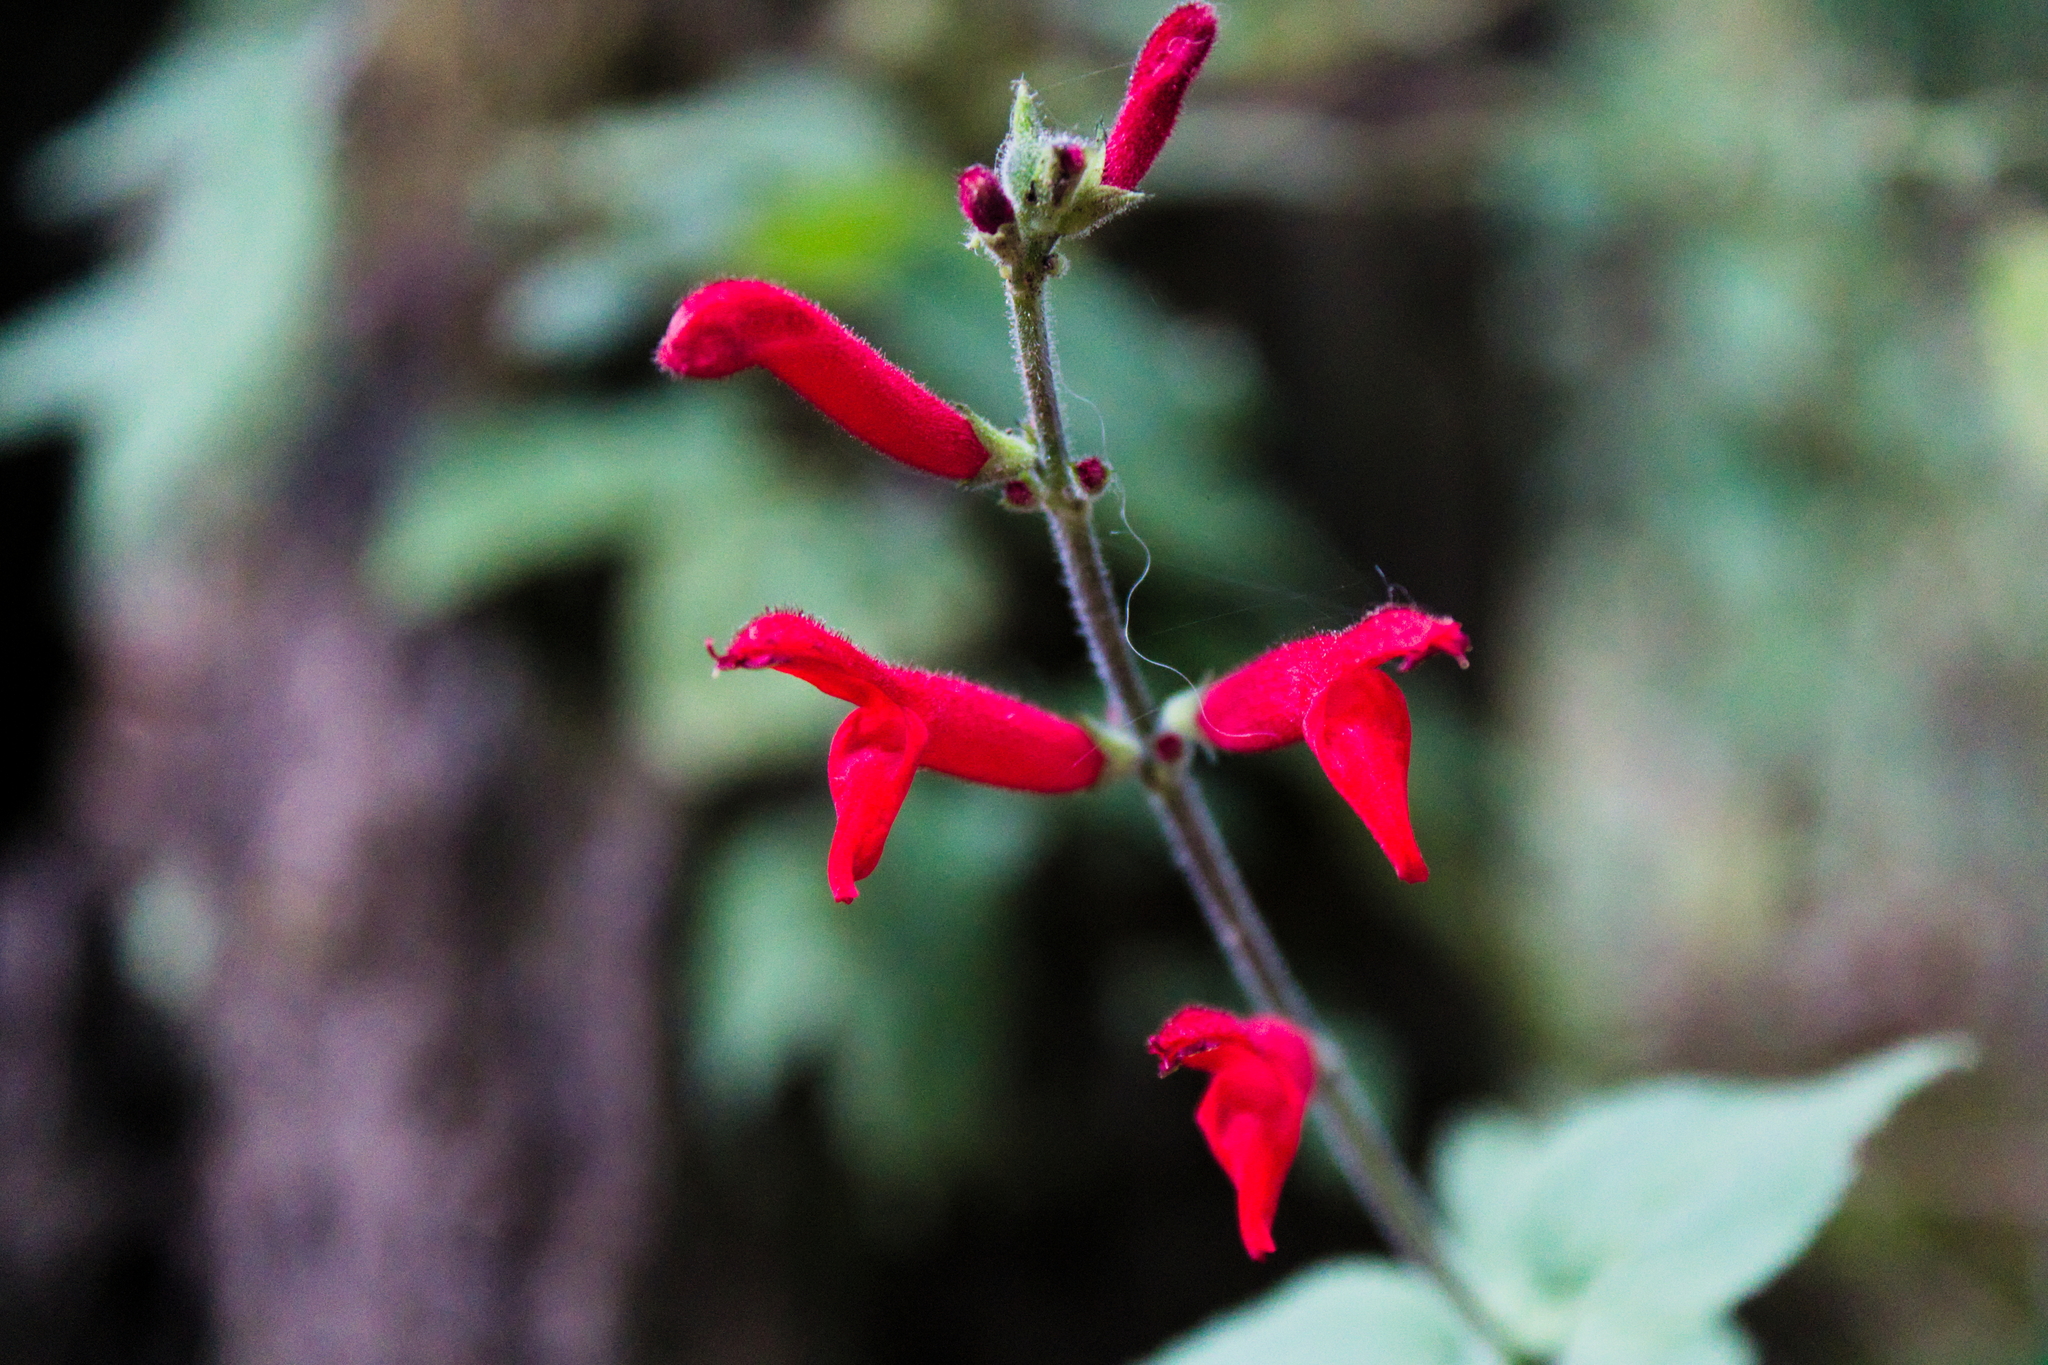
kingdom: Plantae
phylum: Tracheophyta
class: Magnoliopsida
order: Lamiales
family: Lamiaceae
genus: Salvia
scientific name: Salvia elegans
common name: Pineapple sage
